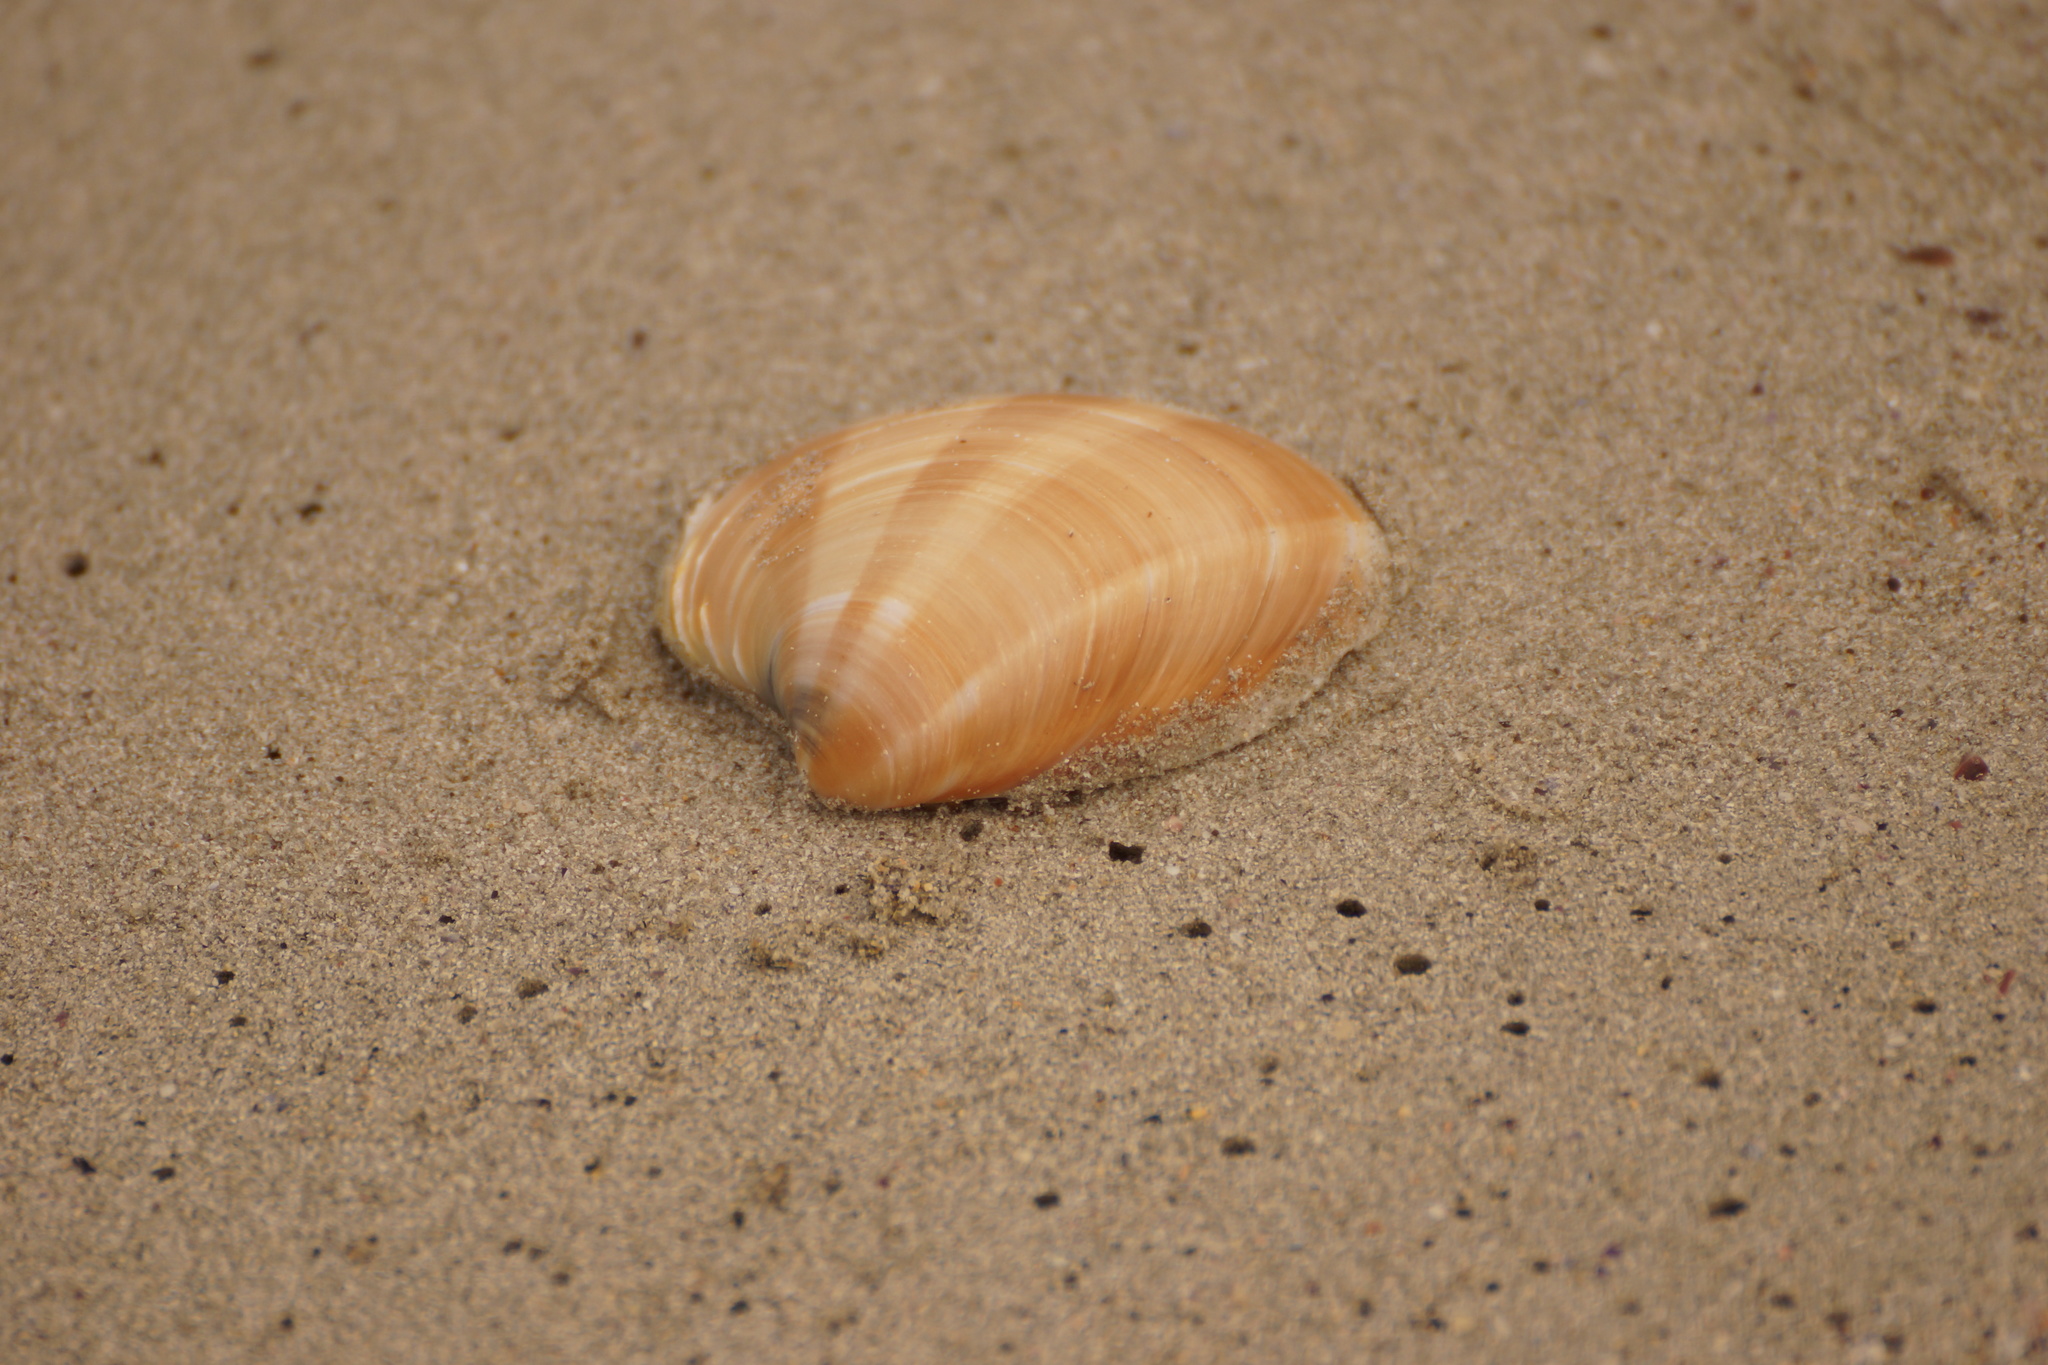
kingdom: Animalia
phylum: Mollusca
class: Bivalvia
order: Venerida
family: Veneridae
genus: Bassina
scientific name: Bassina pachyphylla
